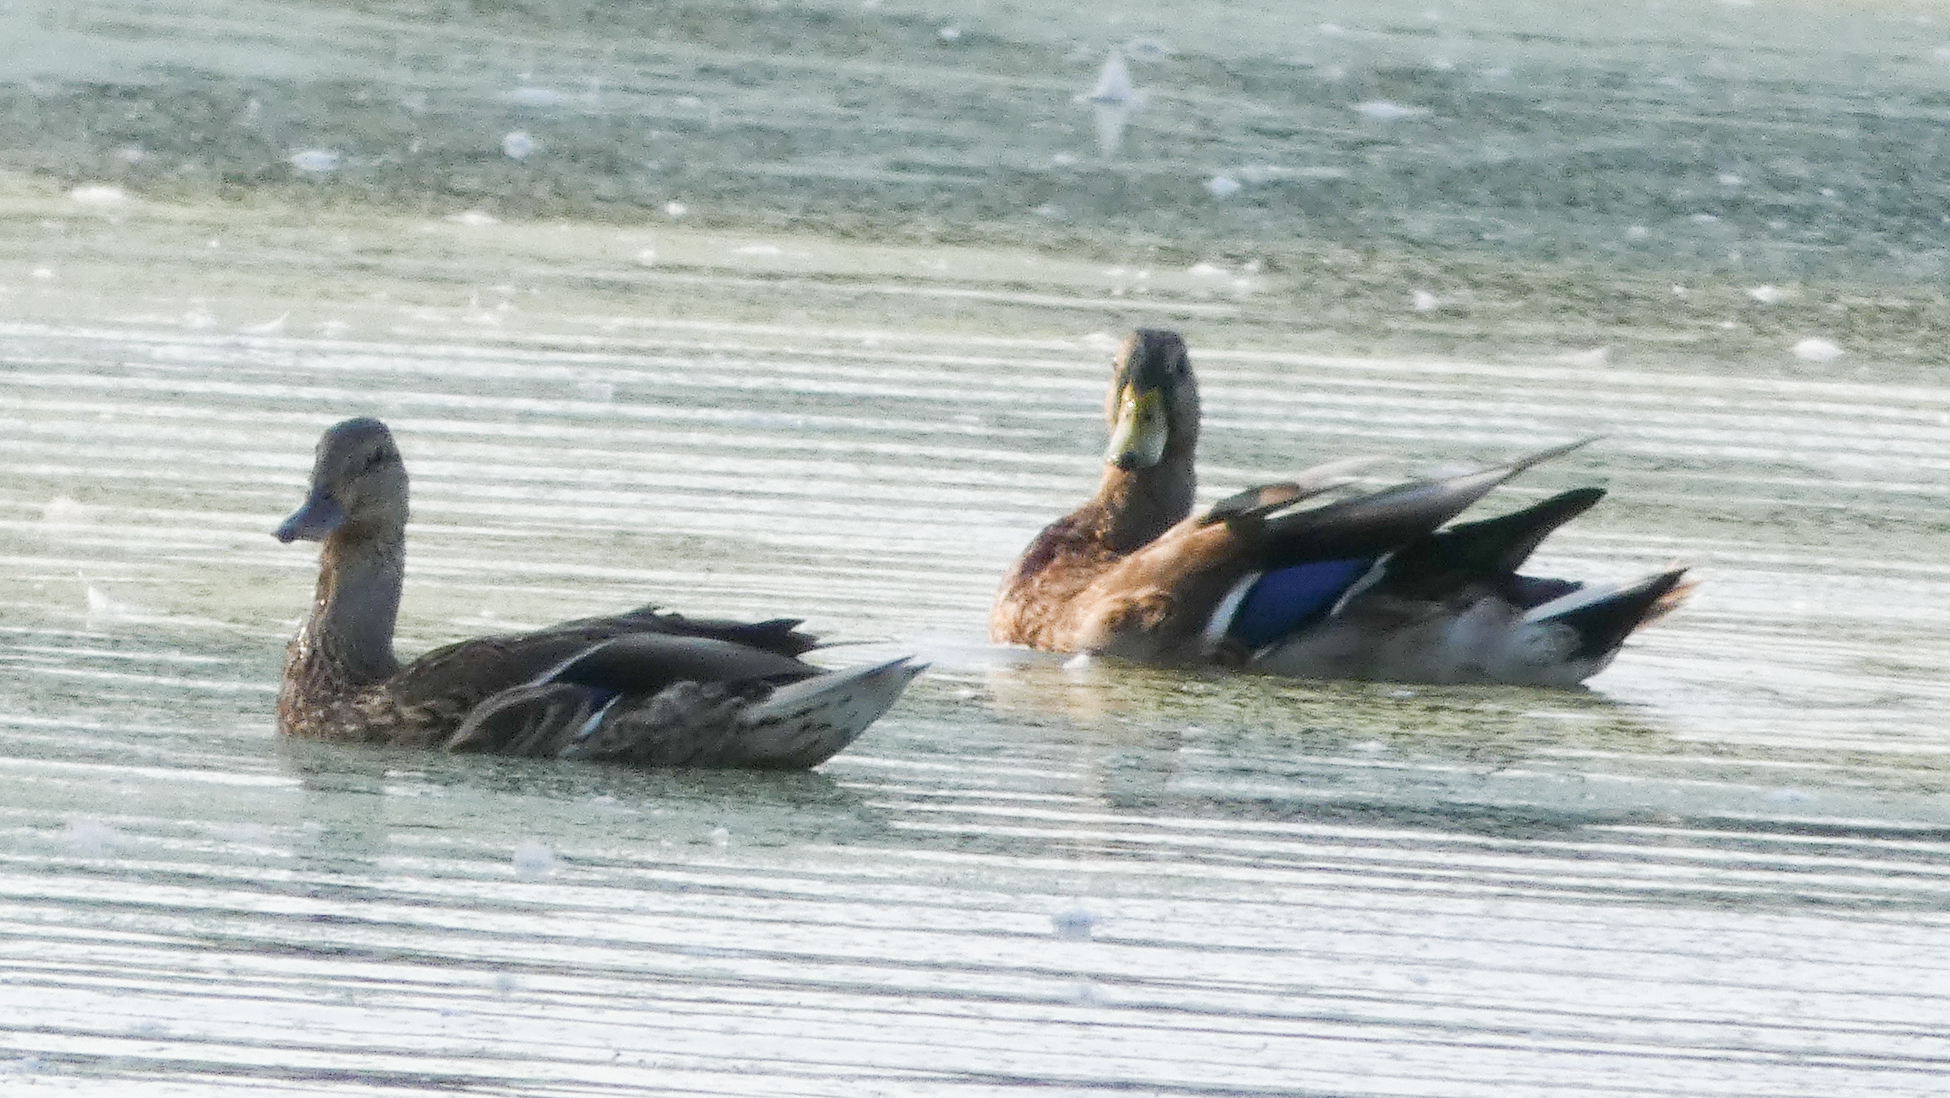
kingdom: Animalia
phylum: Chordata
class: Aves
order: Anseriformes
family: Anatidae
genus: Anas
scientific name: Anas platyrhynchos
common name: Mallard
